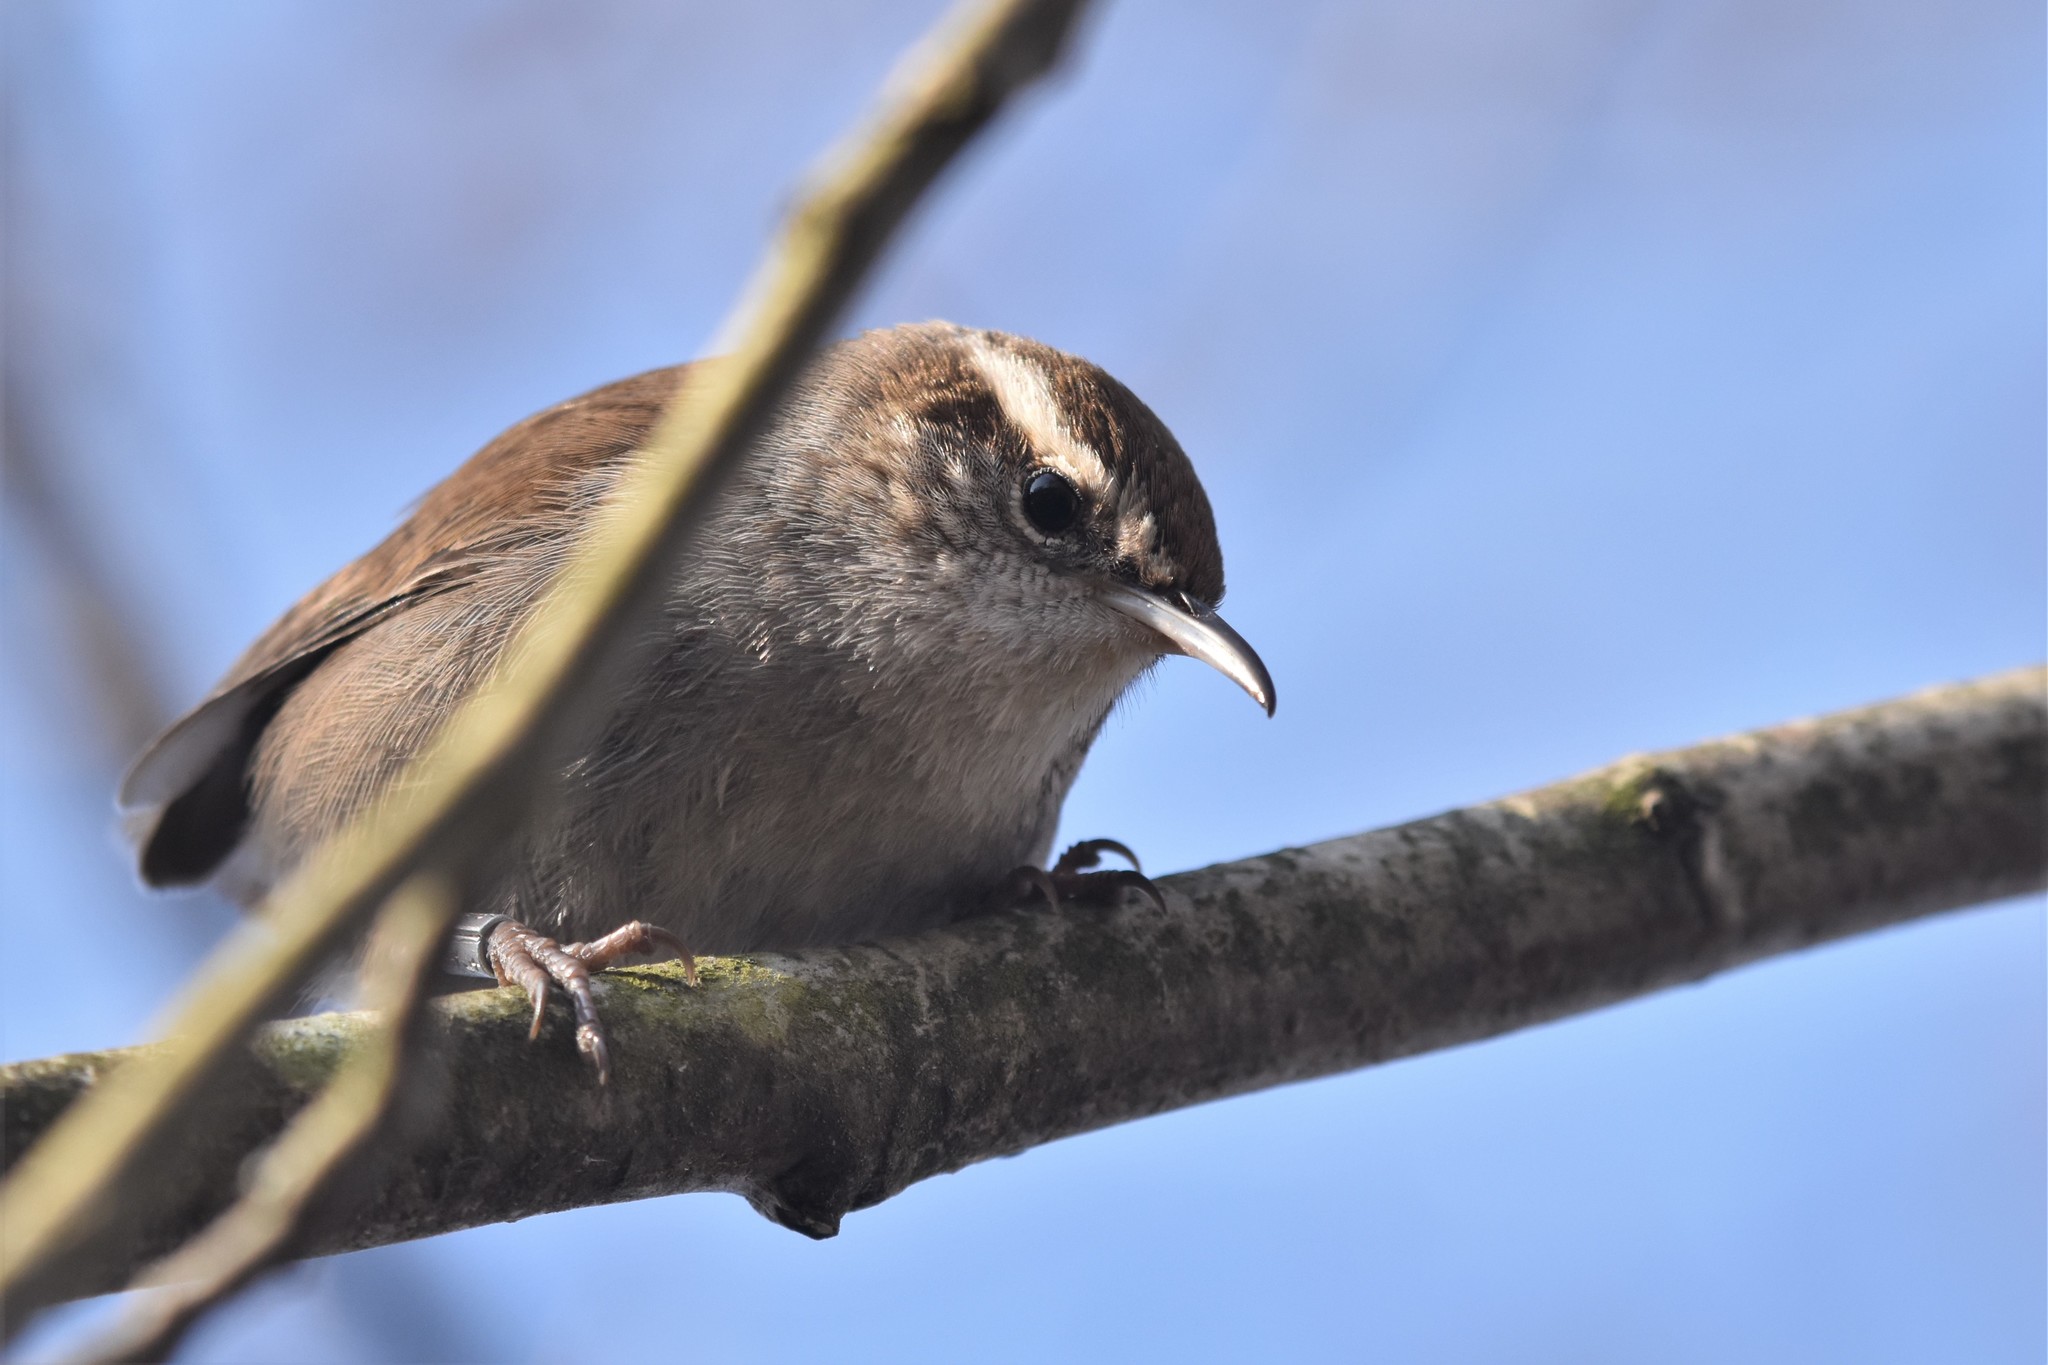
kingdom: Animalia
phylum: Chordata
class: Aves
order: Passeriformes
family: Troglodytidae
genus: Thryomanes
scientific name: Thryomanes bewickii
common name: Bewick's wren
